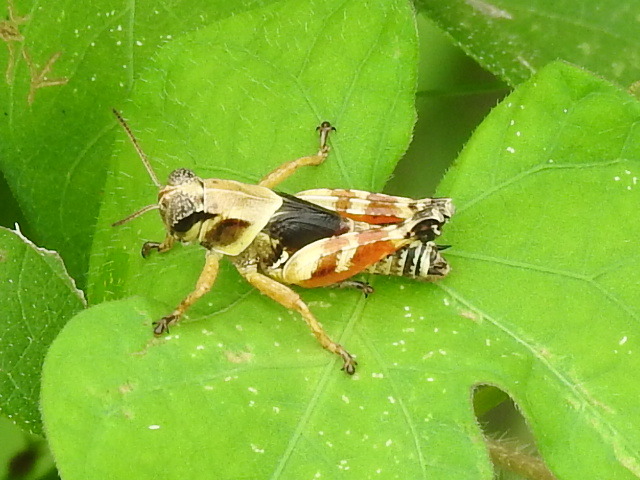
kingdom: Animalia
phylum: Arthropoda
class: Insecta
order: Orthoptera
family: Acrididae
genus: Aidemona
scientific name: Aidemona azteca
